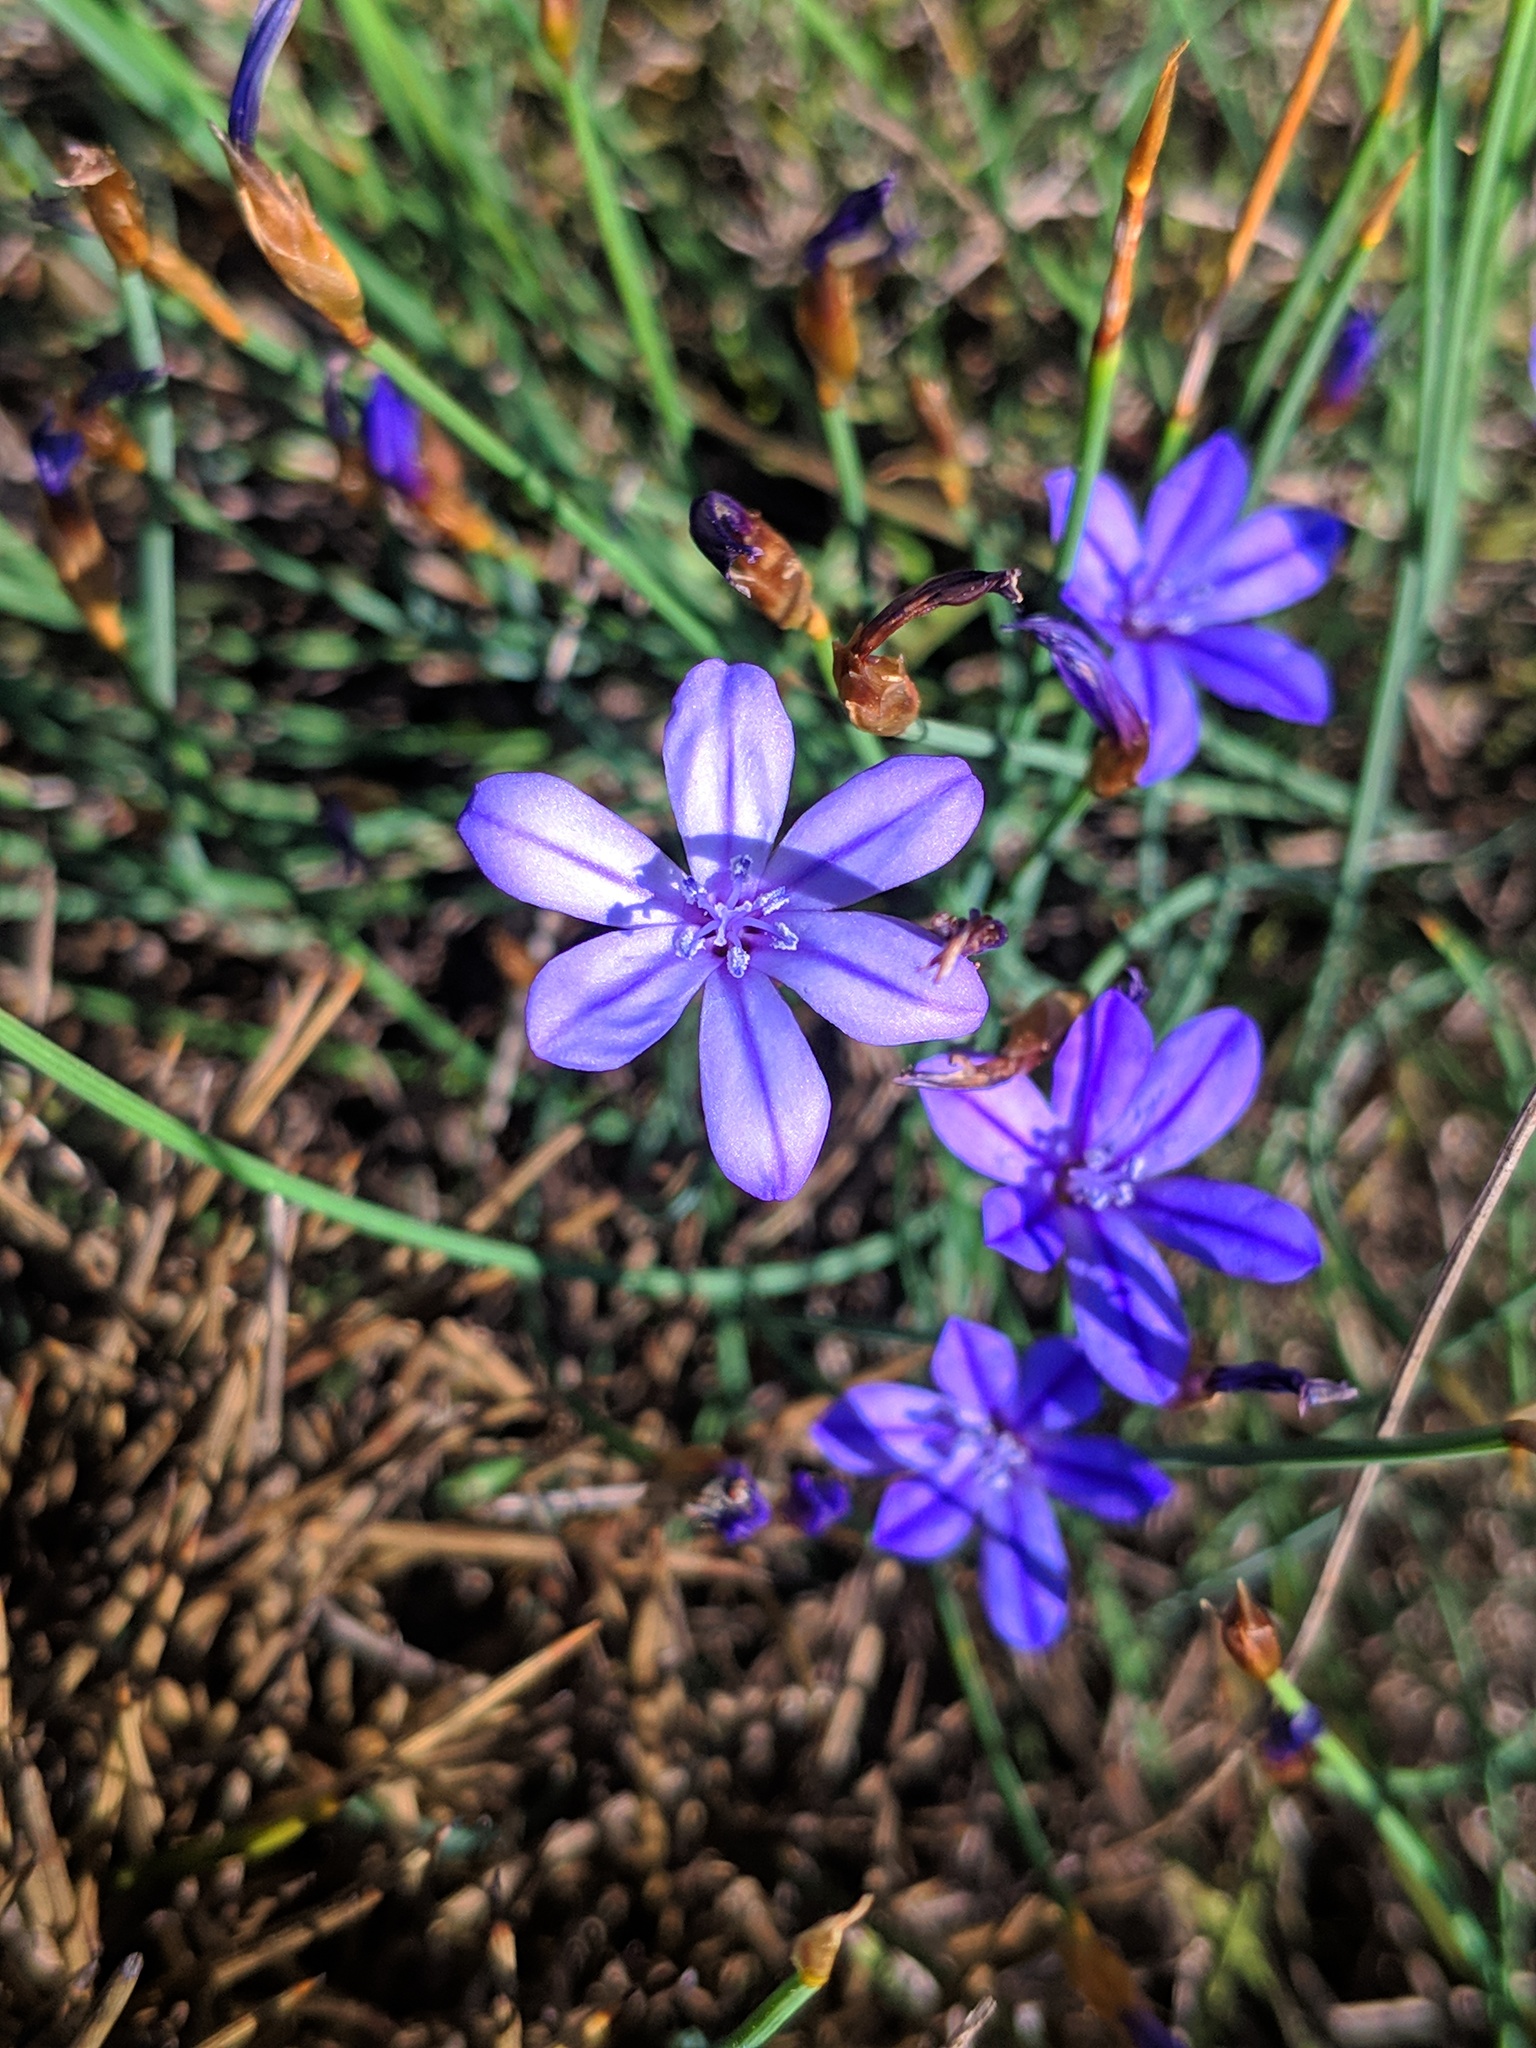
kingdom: Plantae
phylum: Tracheophyta
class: Liliopsida
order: Asparagales
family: Asparagaceae
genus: Aphyllanthes
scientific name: Aphyllanthes monspeliensis
